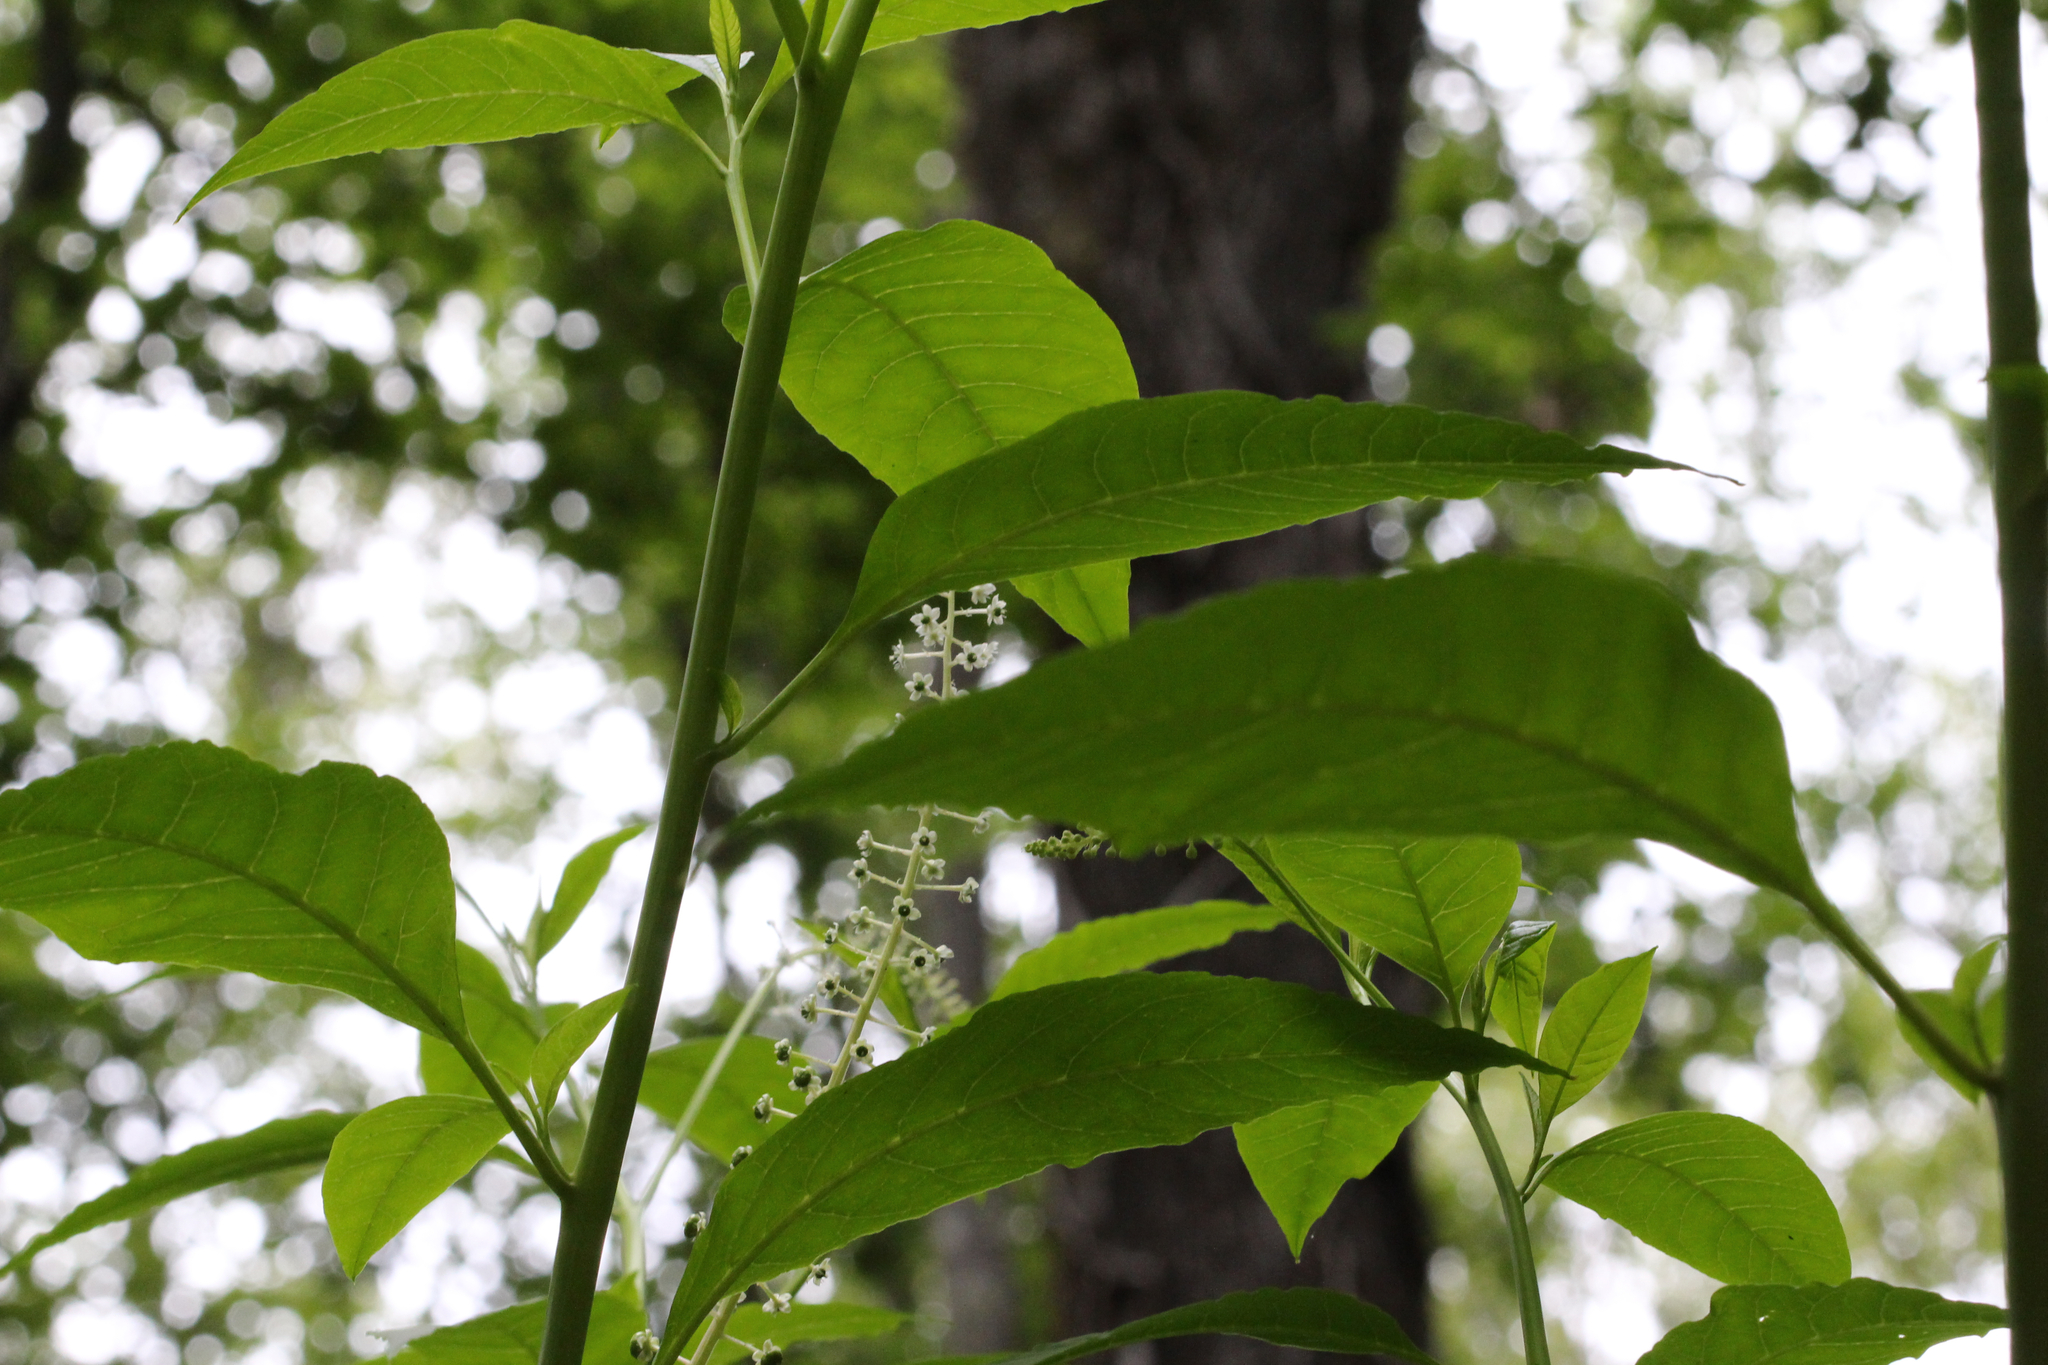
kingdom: Plantae
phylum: Tracheophyta
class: Magnoliopsida
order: Caryophyllales
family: Phytolaccaceae
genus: Phytolacca
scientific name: Phytolacca americana
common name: American pokeweed
